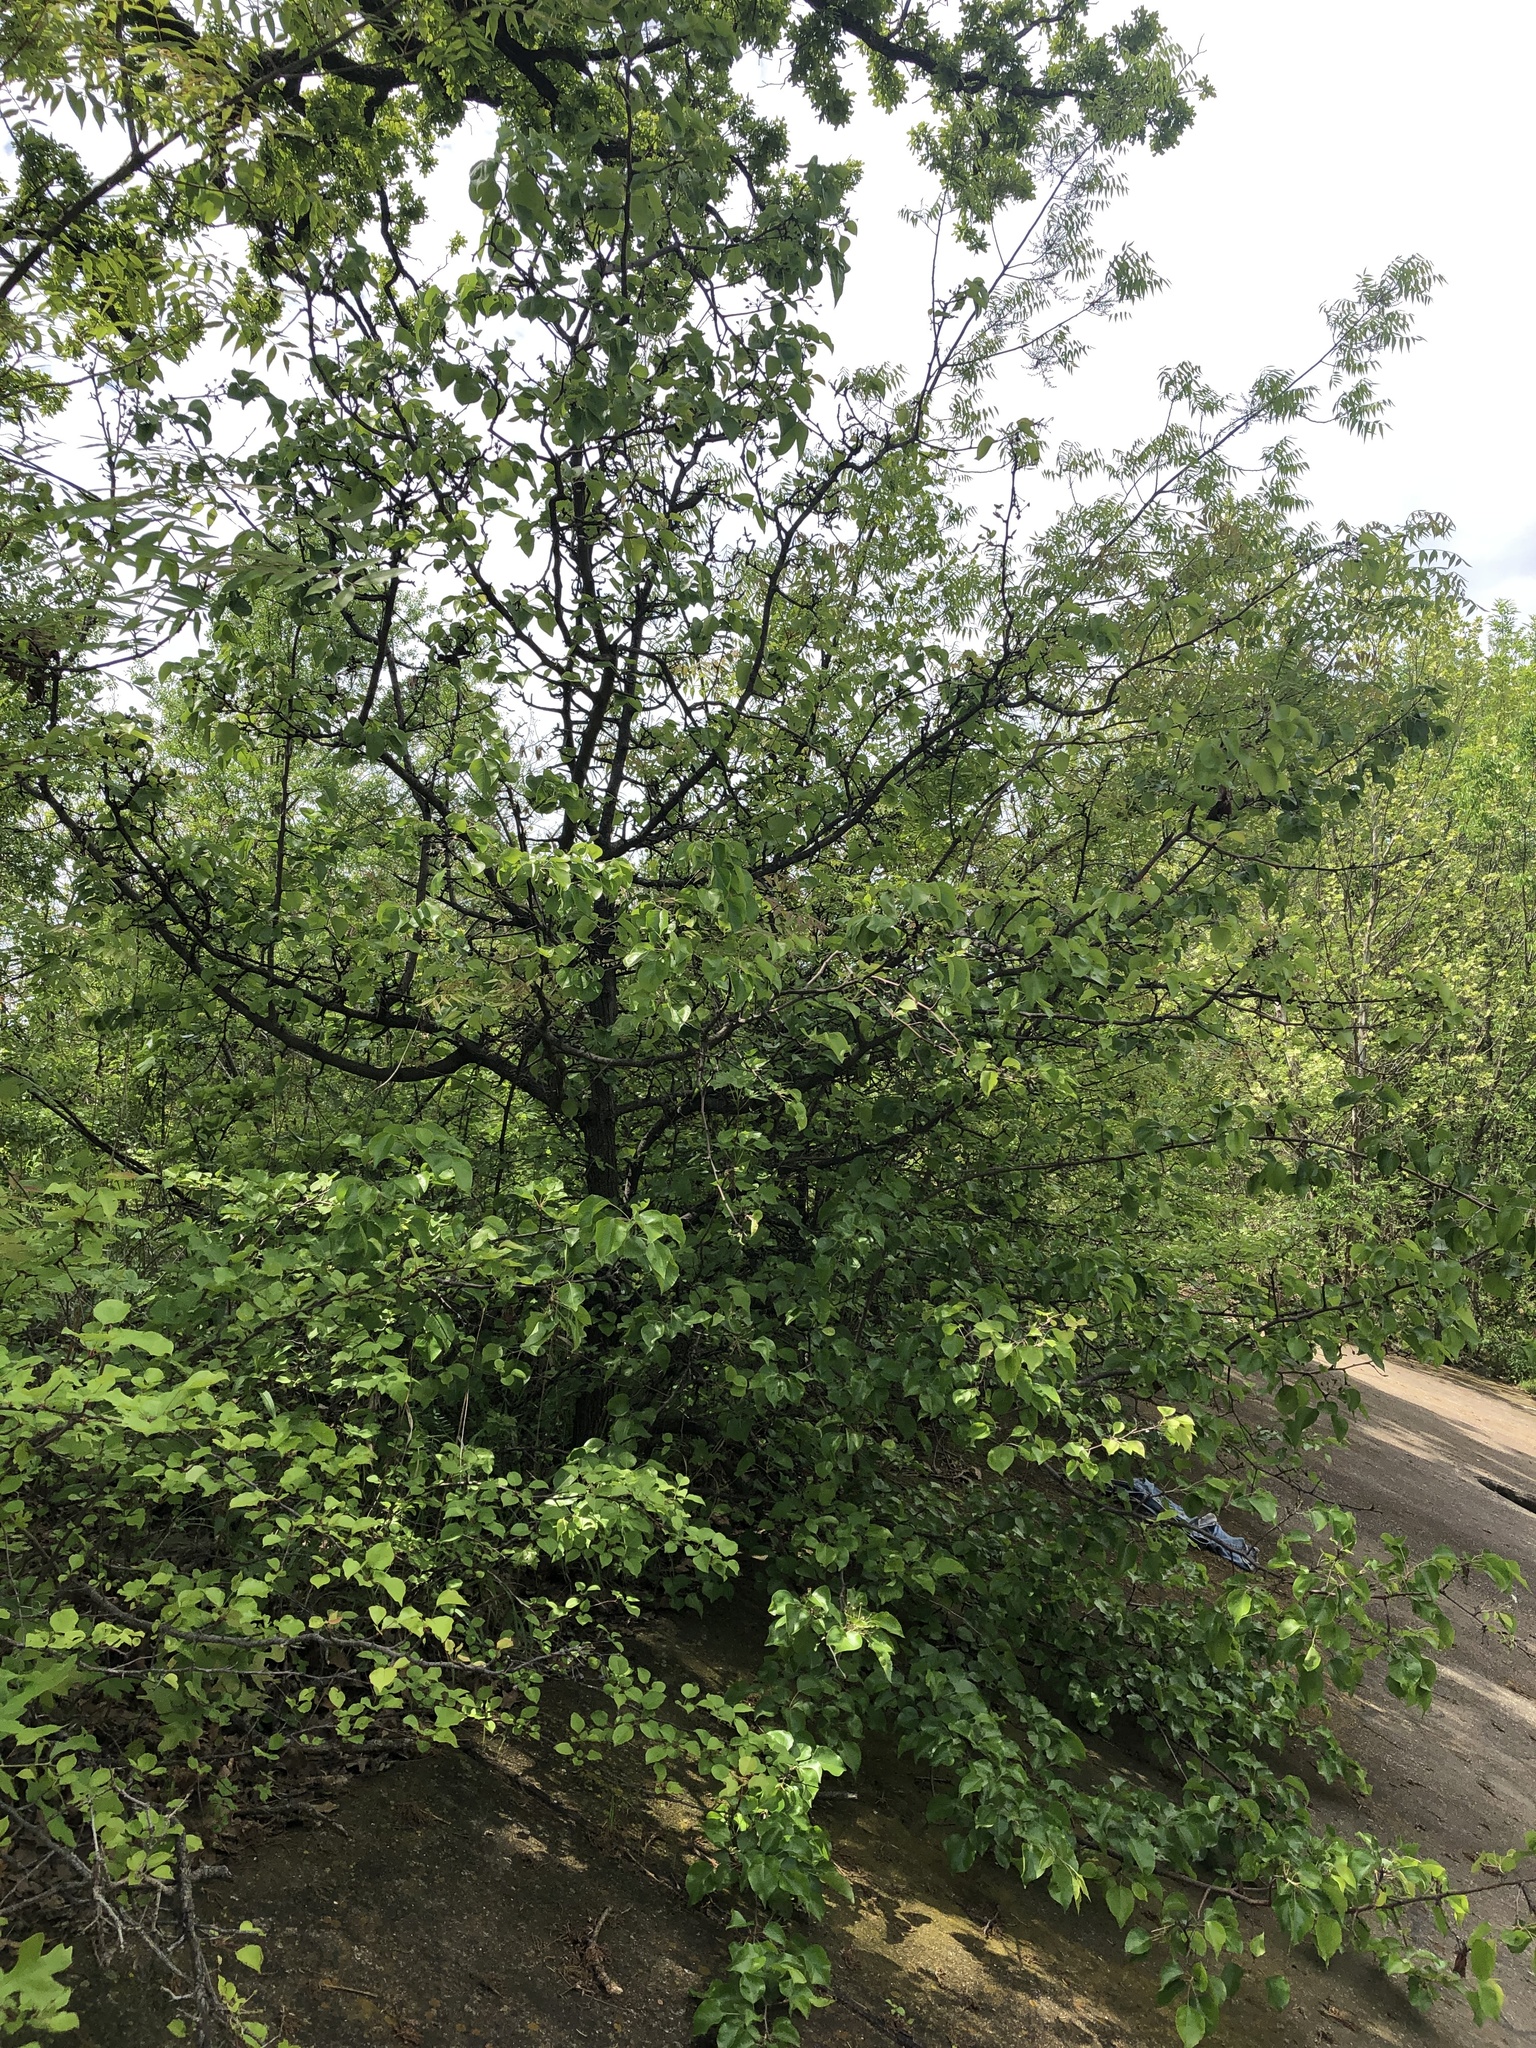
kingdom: Plantae
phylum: Tracheophyta
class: Magnoliopsida
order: Rosales
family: Rosaceae
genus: Pyrus
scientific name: Pyrus calleryana
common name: Callery pear
